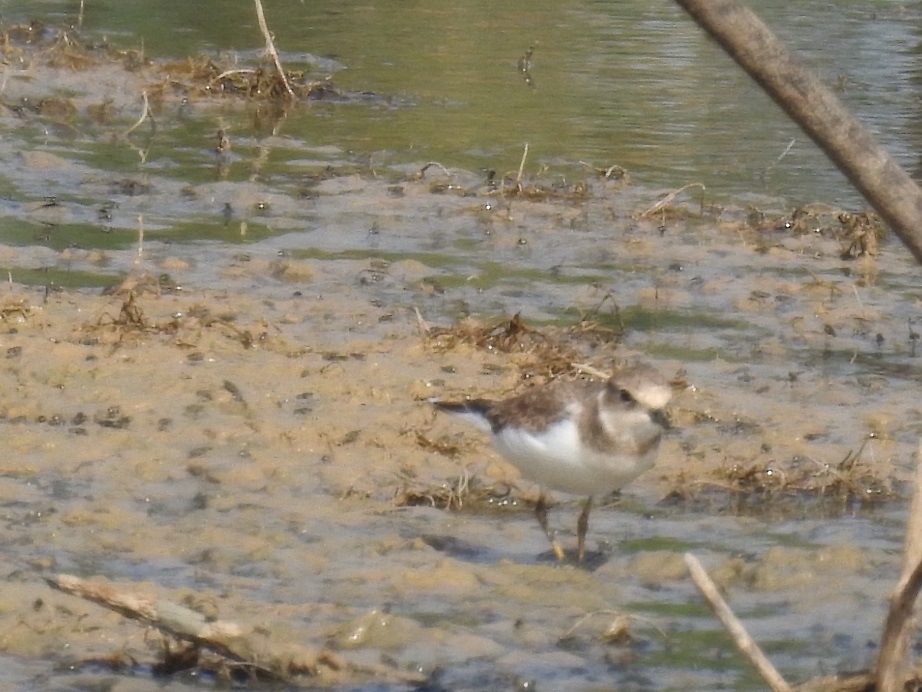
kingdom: Animalia
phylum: Chordata
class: Aves
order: Charadriiformes
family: Charadriidae
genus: Charadrius
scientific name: Charadrius dubius
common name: Little ringed plover
